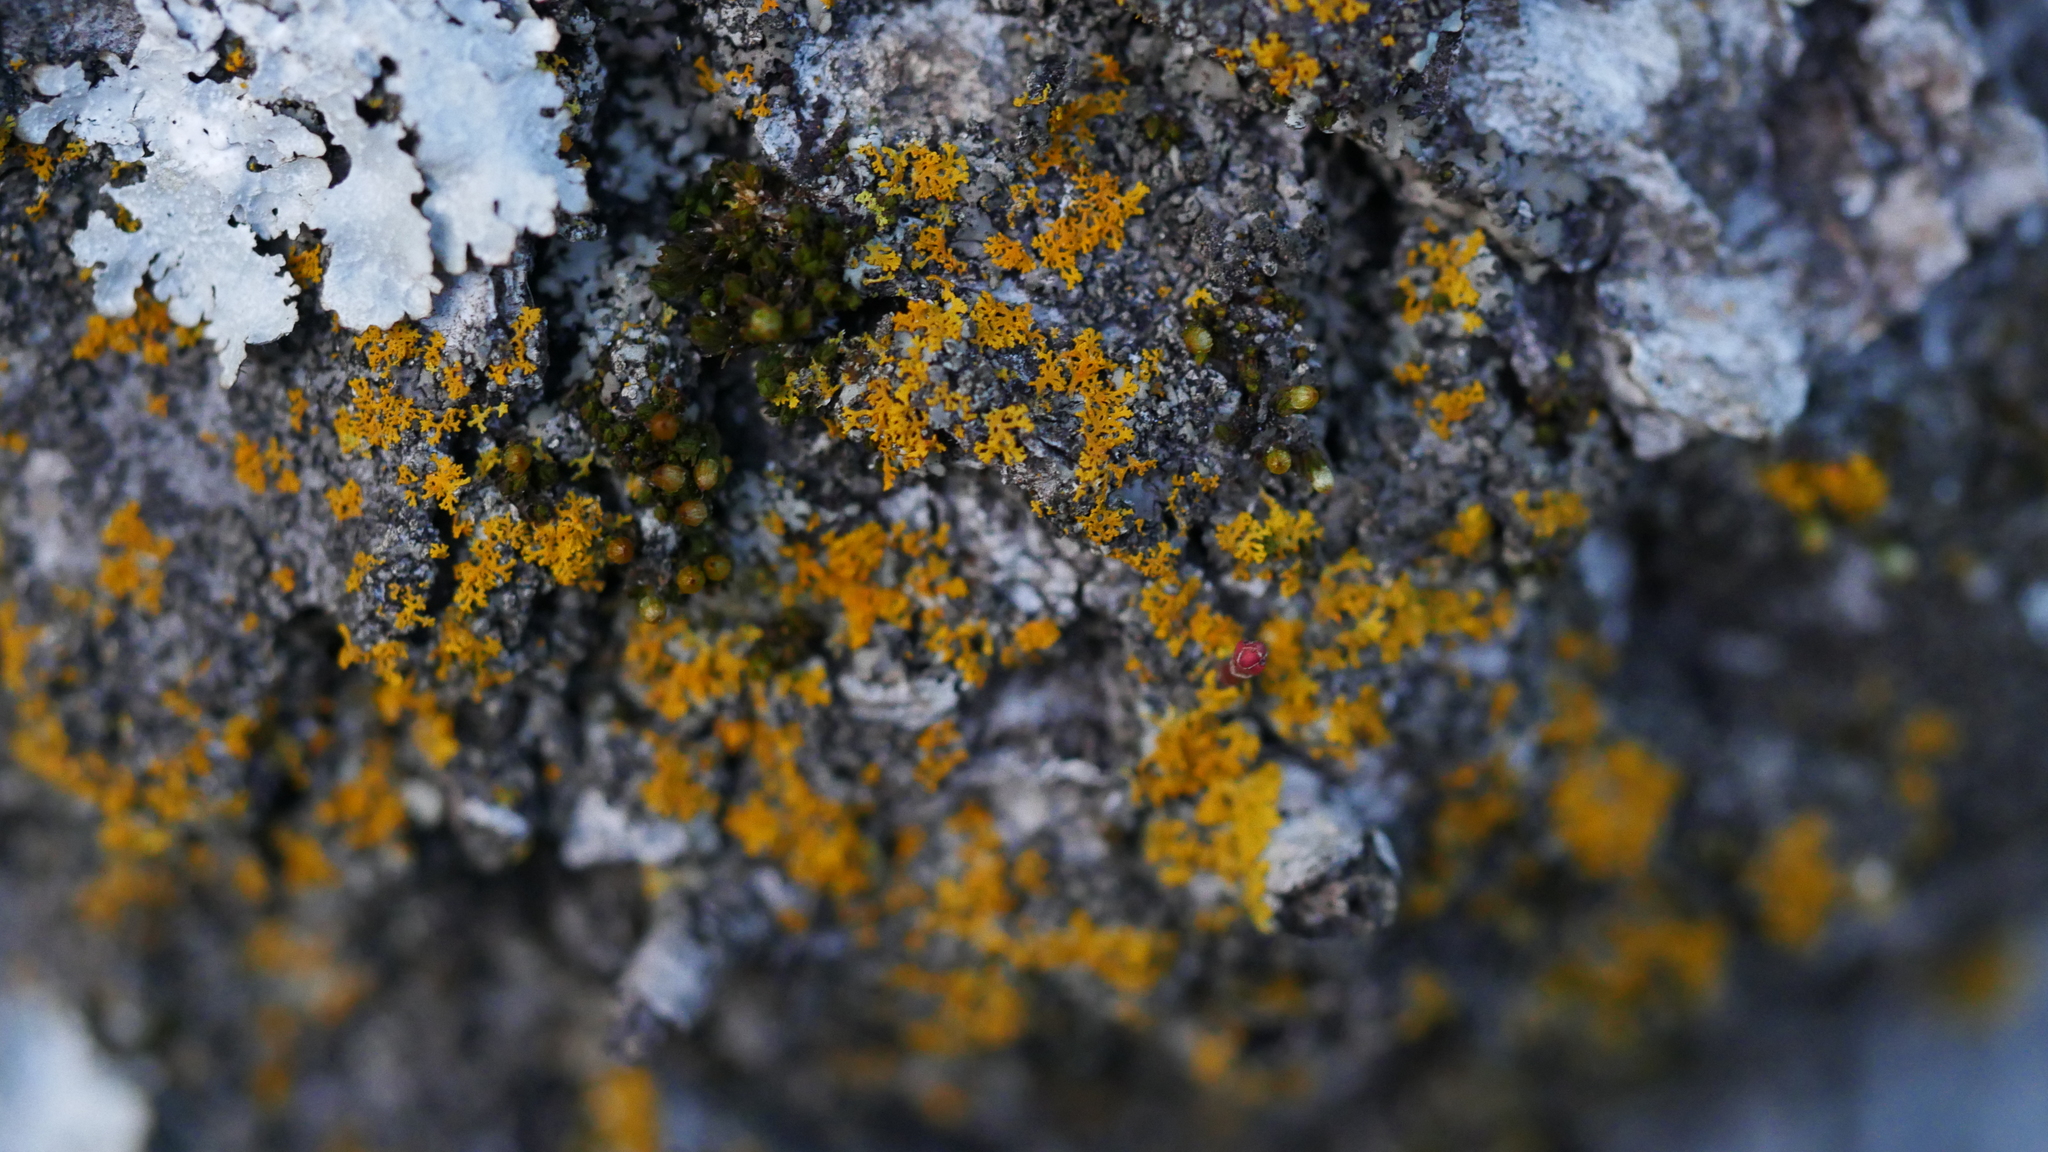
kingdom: Fungi
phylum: Ascomycota
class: Lecanoromycetes
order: Teloschistales
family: Teloschistaceae
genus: Gallowayella
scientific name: Gallowayella weberi
